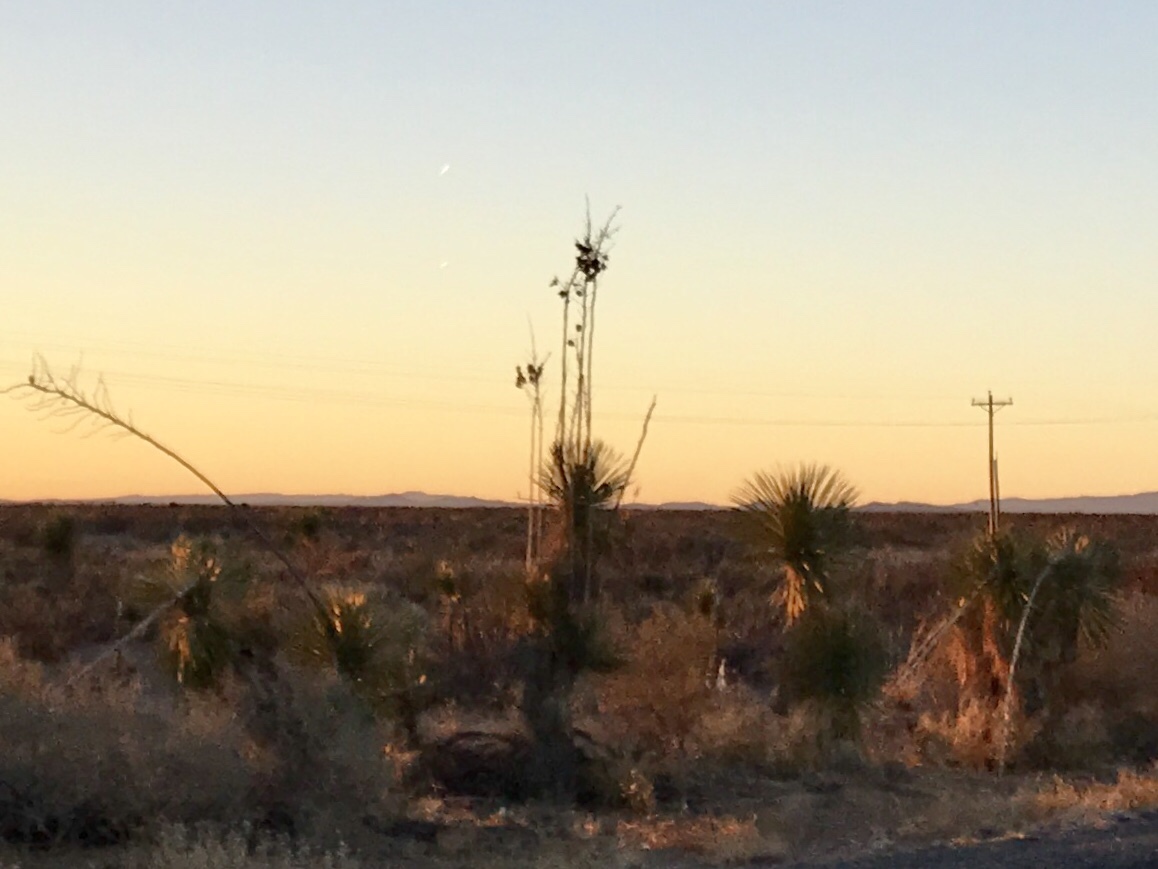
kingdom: Plantae
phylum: Tracheophyta
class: Liliopsida
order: Asparagales
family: Asparagaceae
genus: Yucca
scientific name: Yucca elata
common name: Palmella
